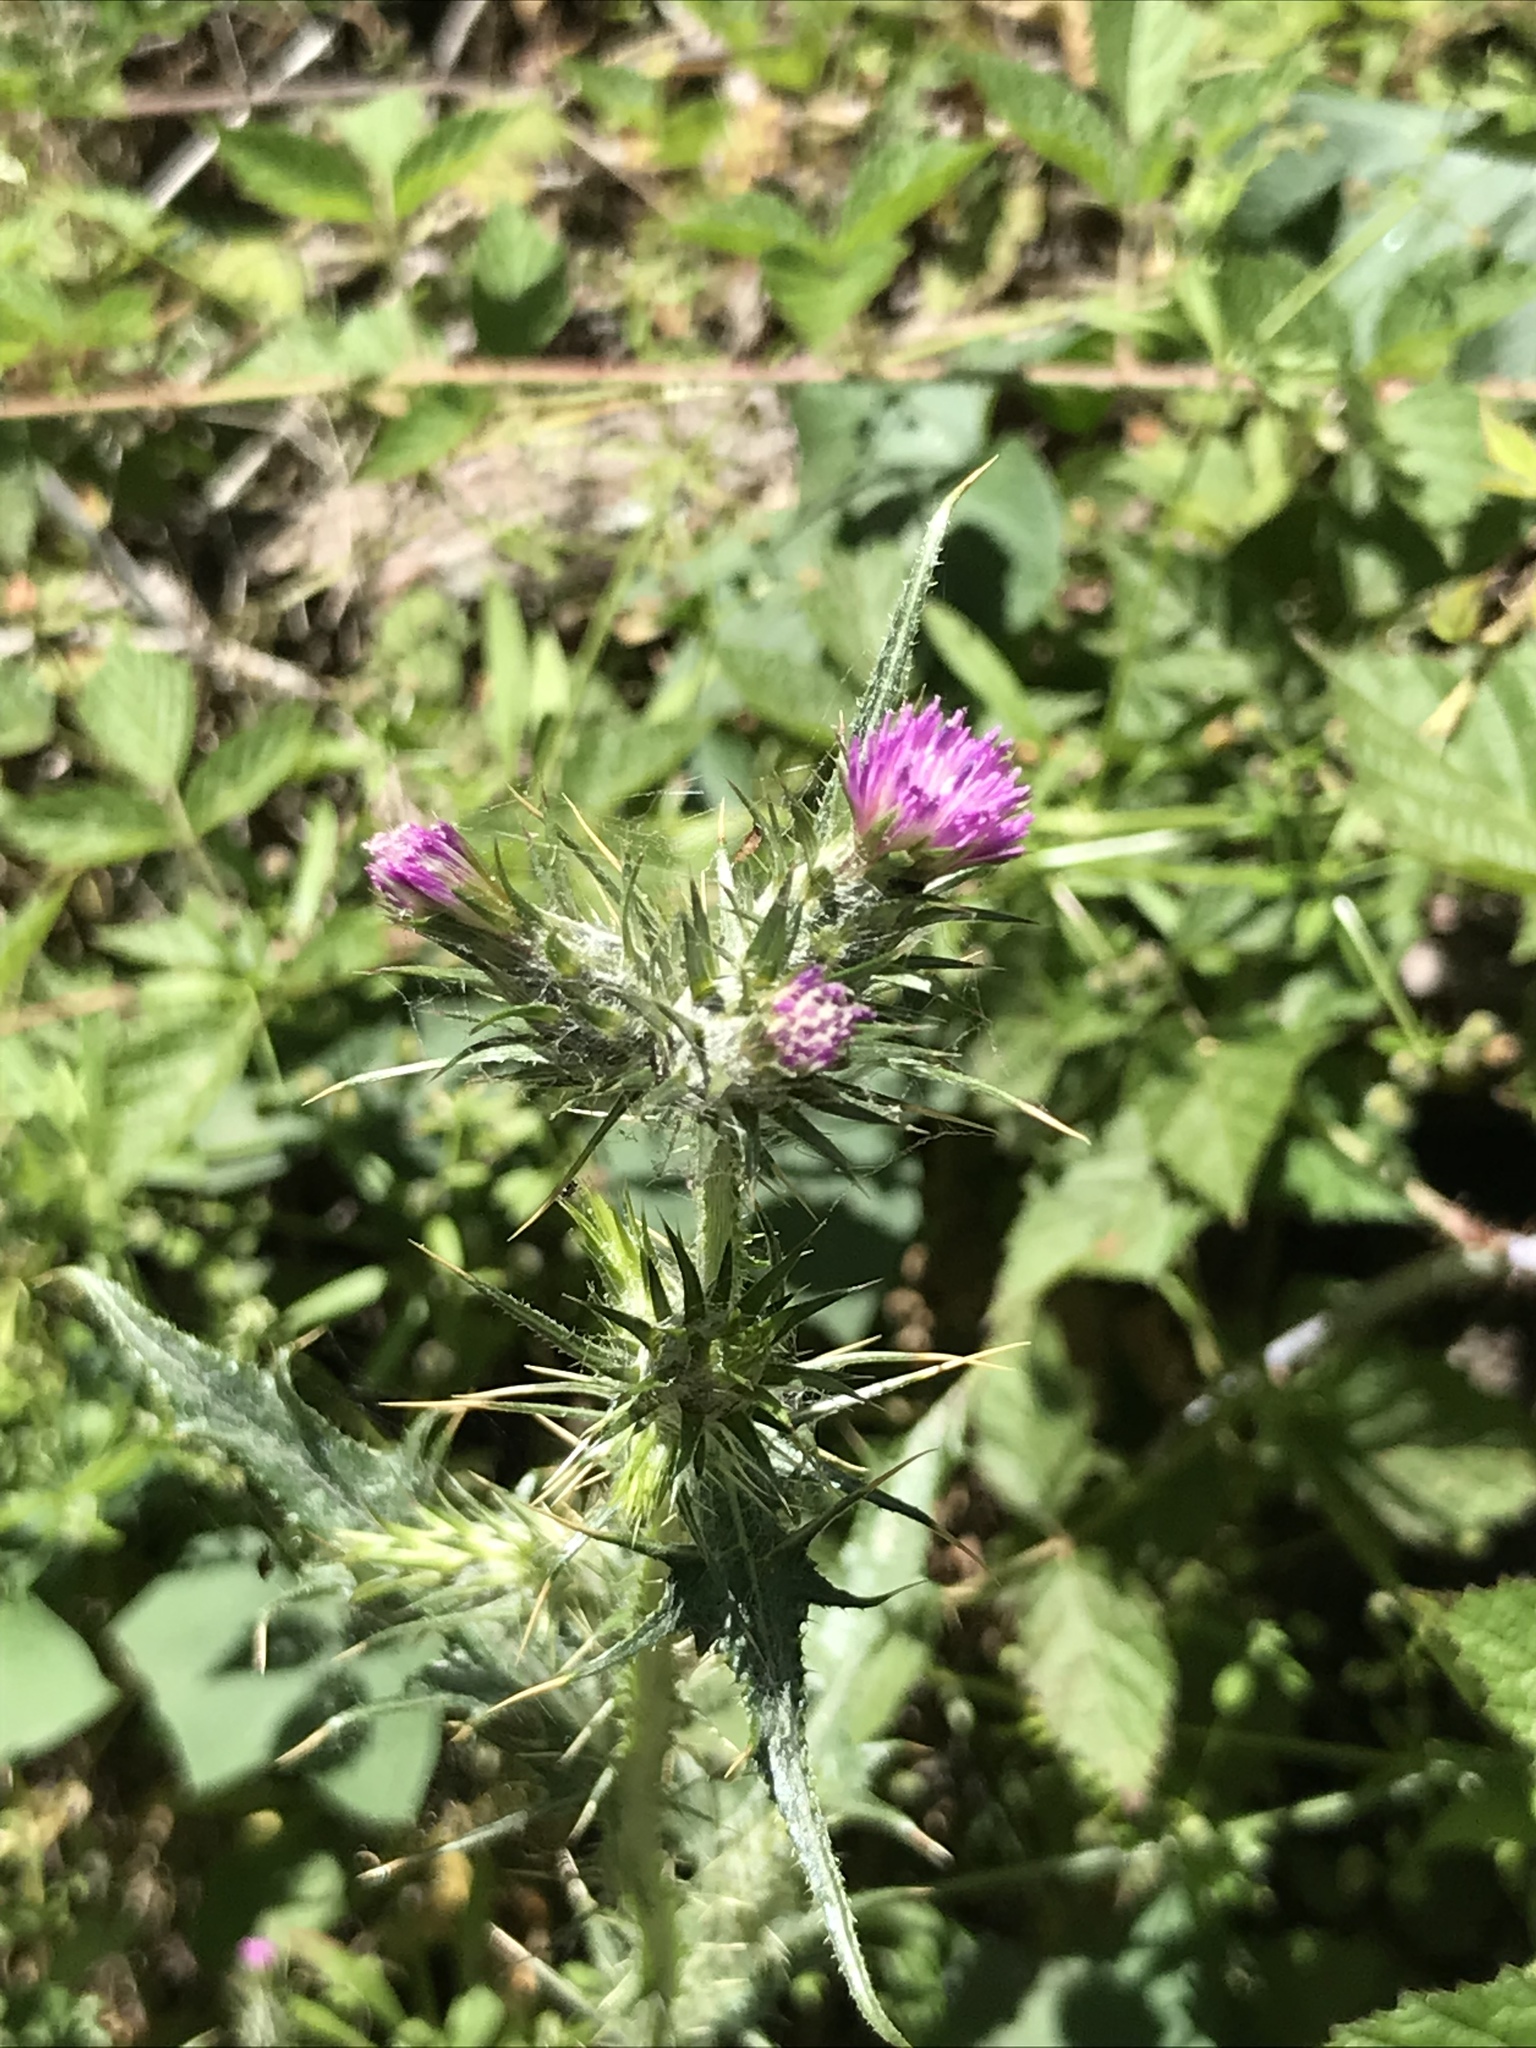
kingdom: Plantae
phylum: Tracheophyta
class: Magnoliopsida
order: Asterales
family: Asteraceae
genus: Carduus
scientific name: Carduus pycnocephalus
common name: Plymouth thistle
